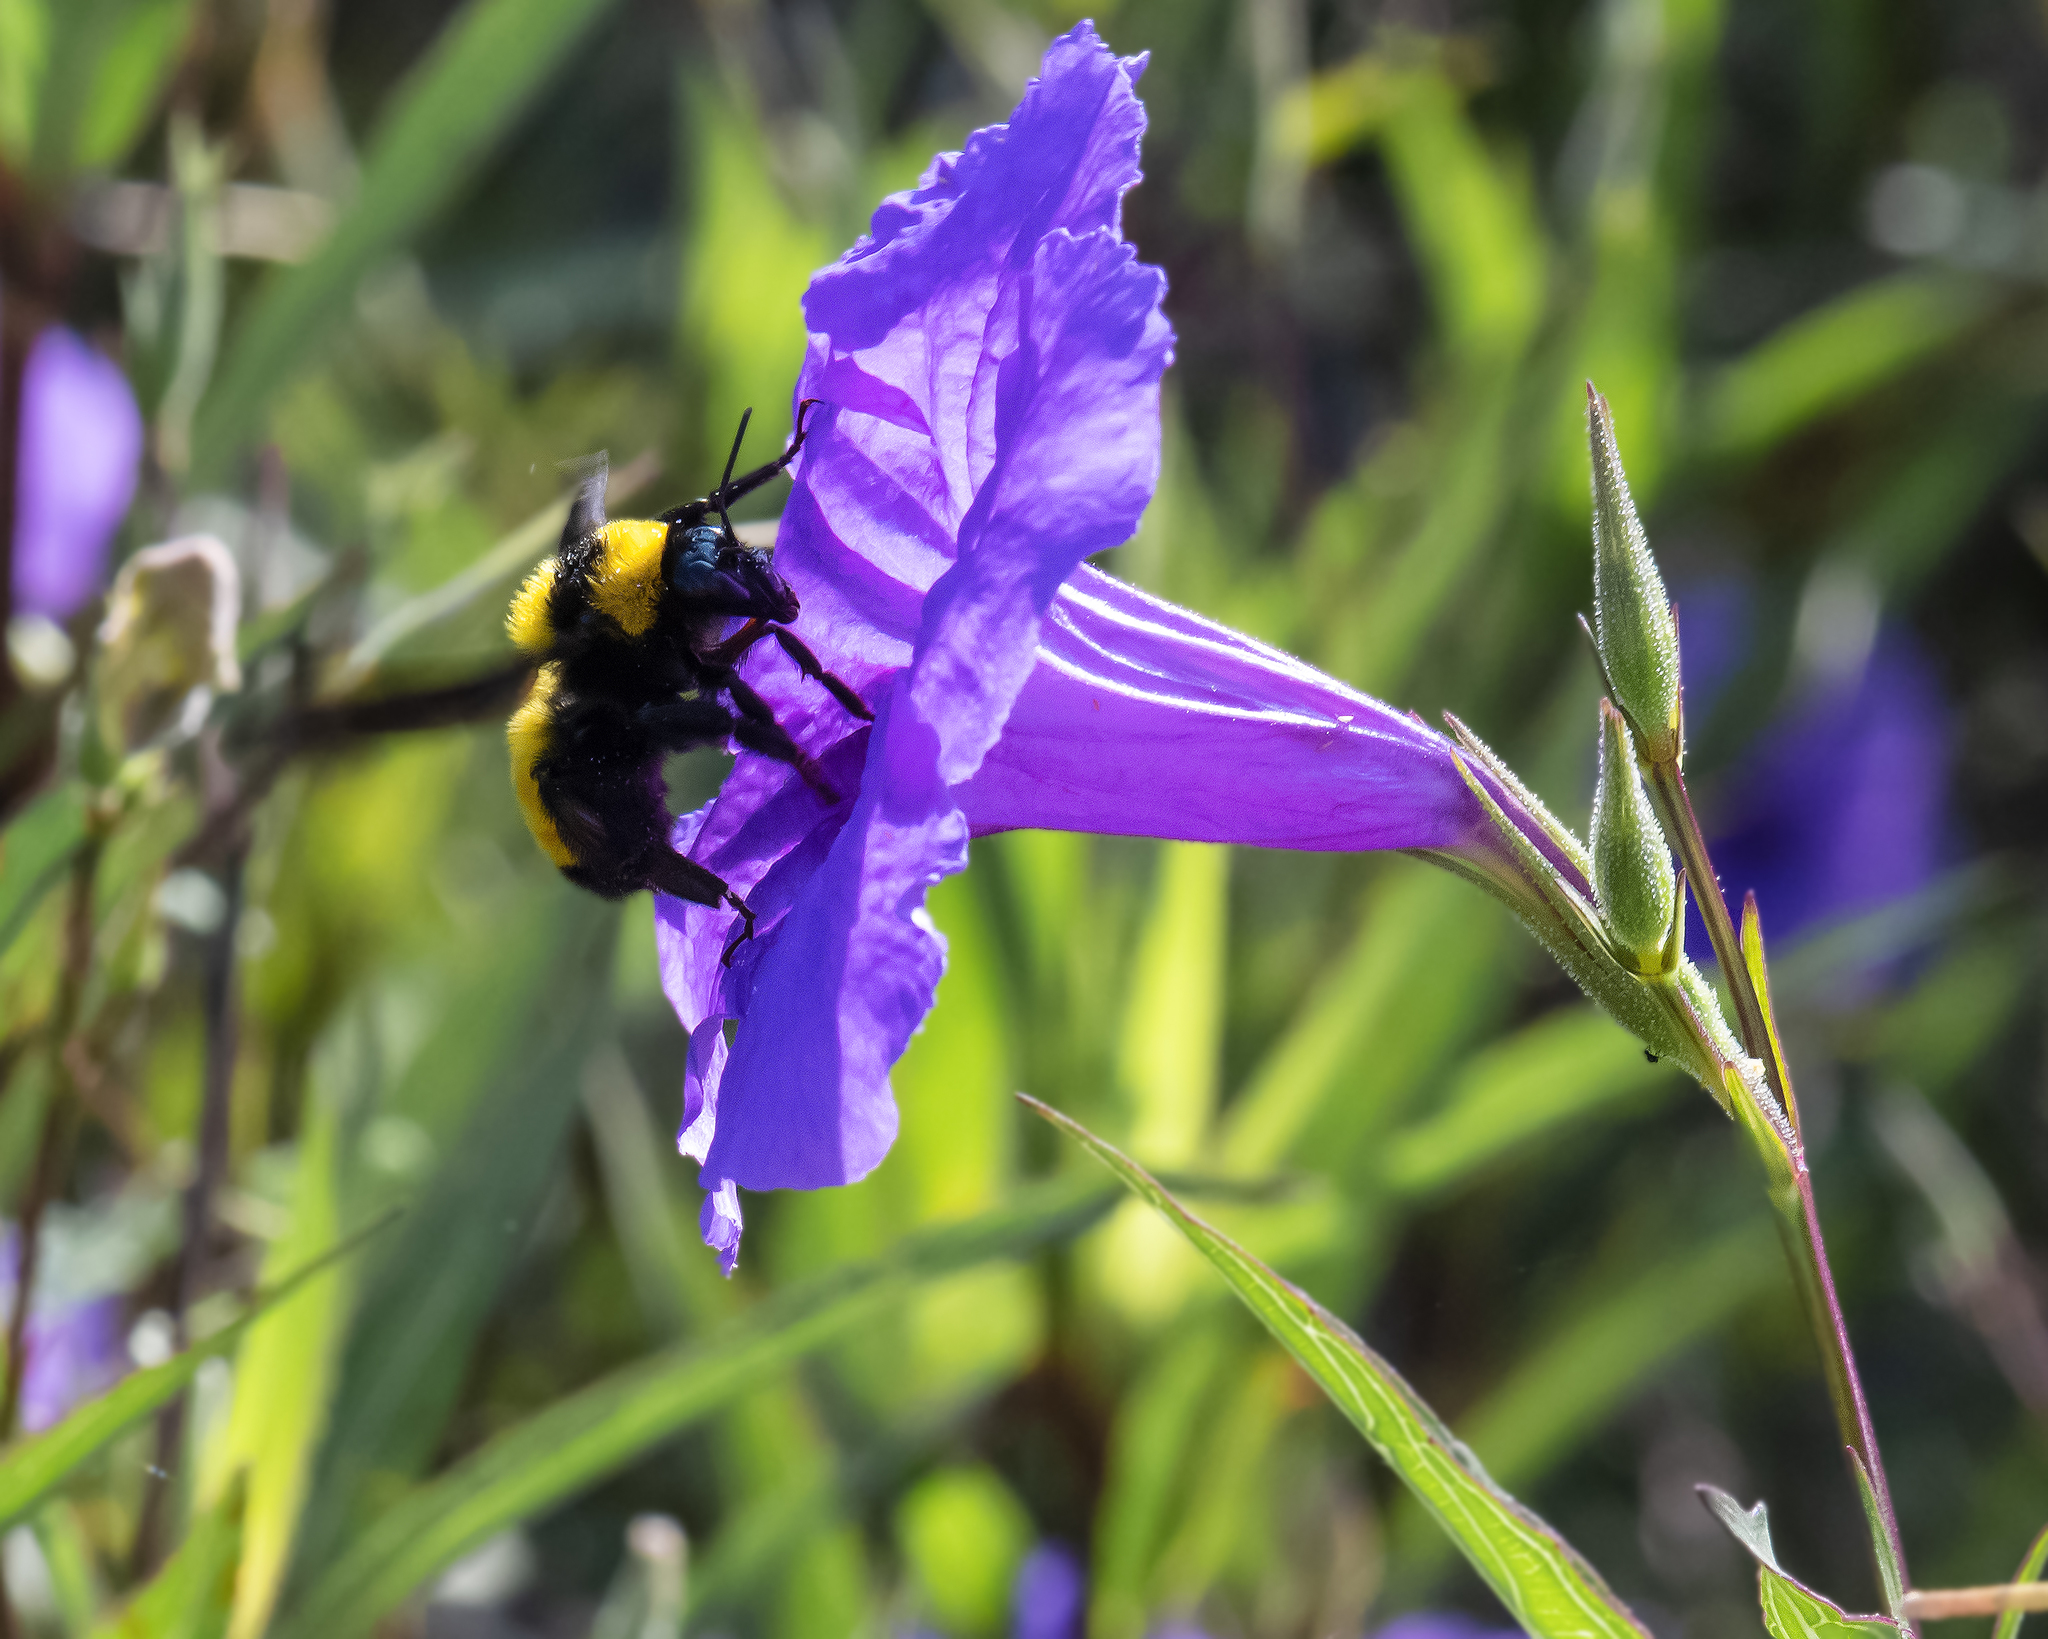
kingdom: Animalia
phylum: Arthropoda
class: Insecta
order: Hymenoptera
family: Apidae
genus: Bombus
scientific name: Bombus sonorus
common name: Sonoran bumble bee
